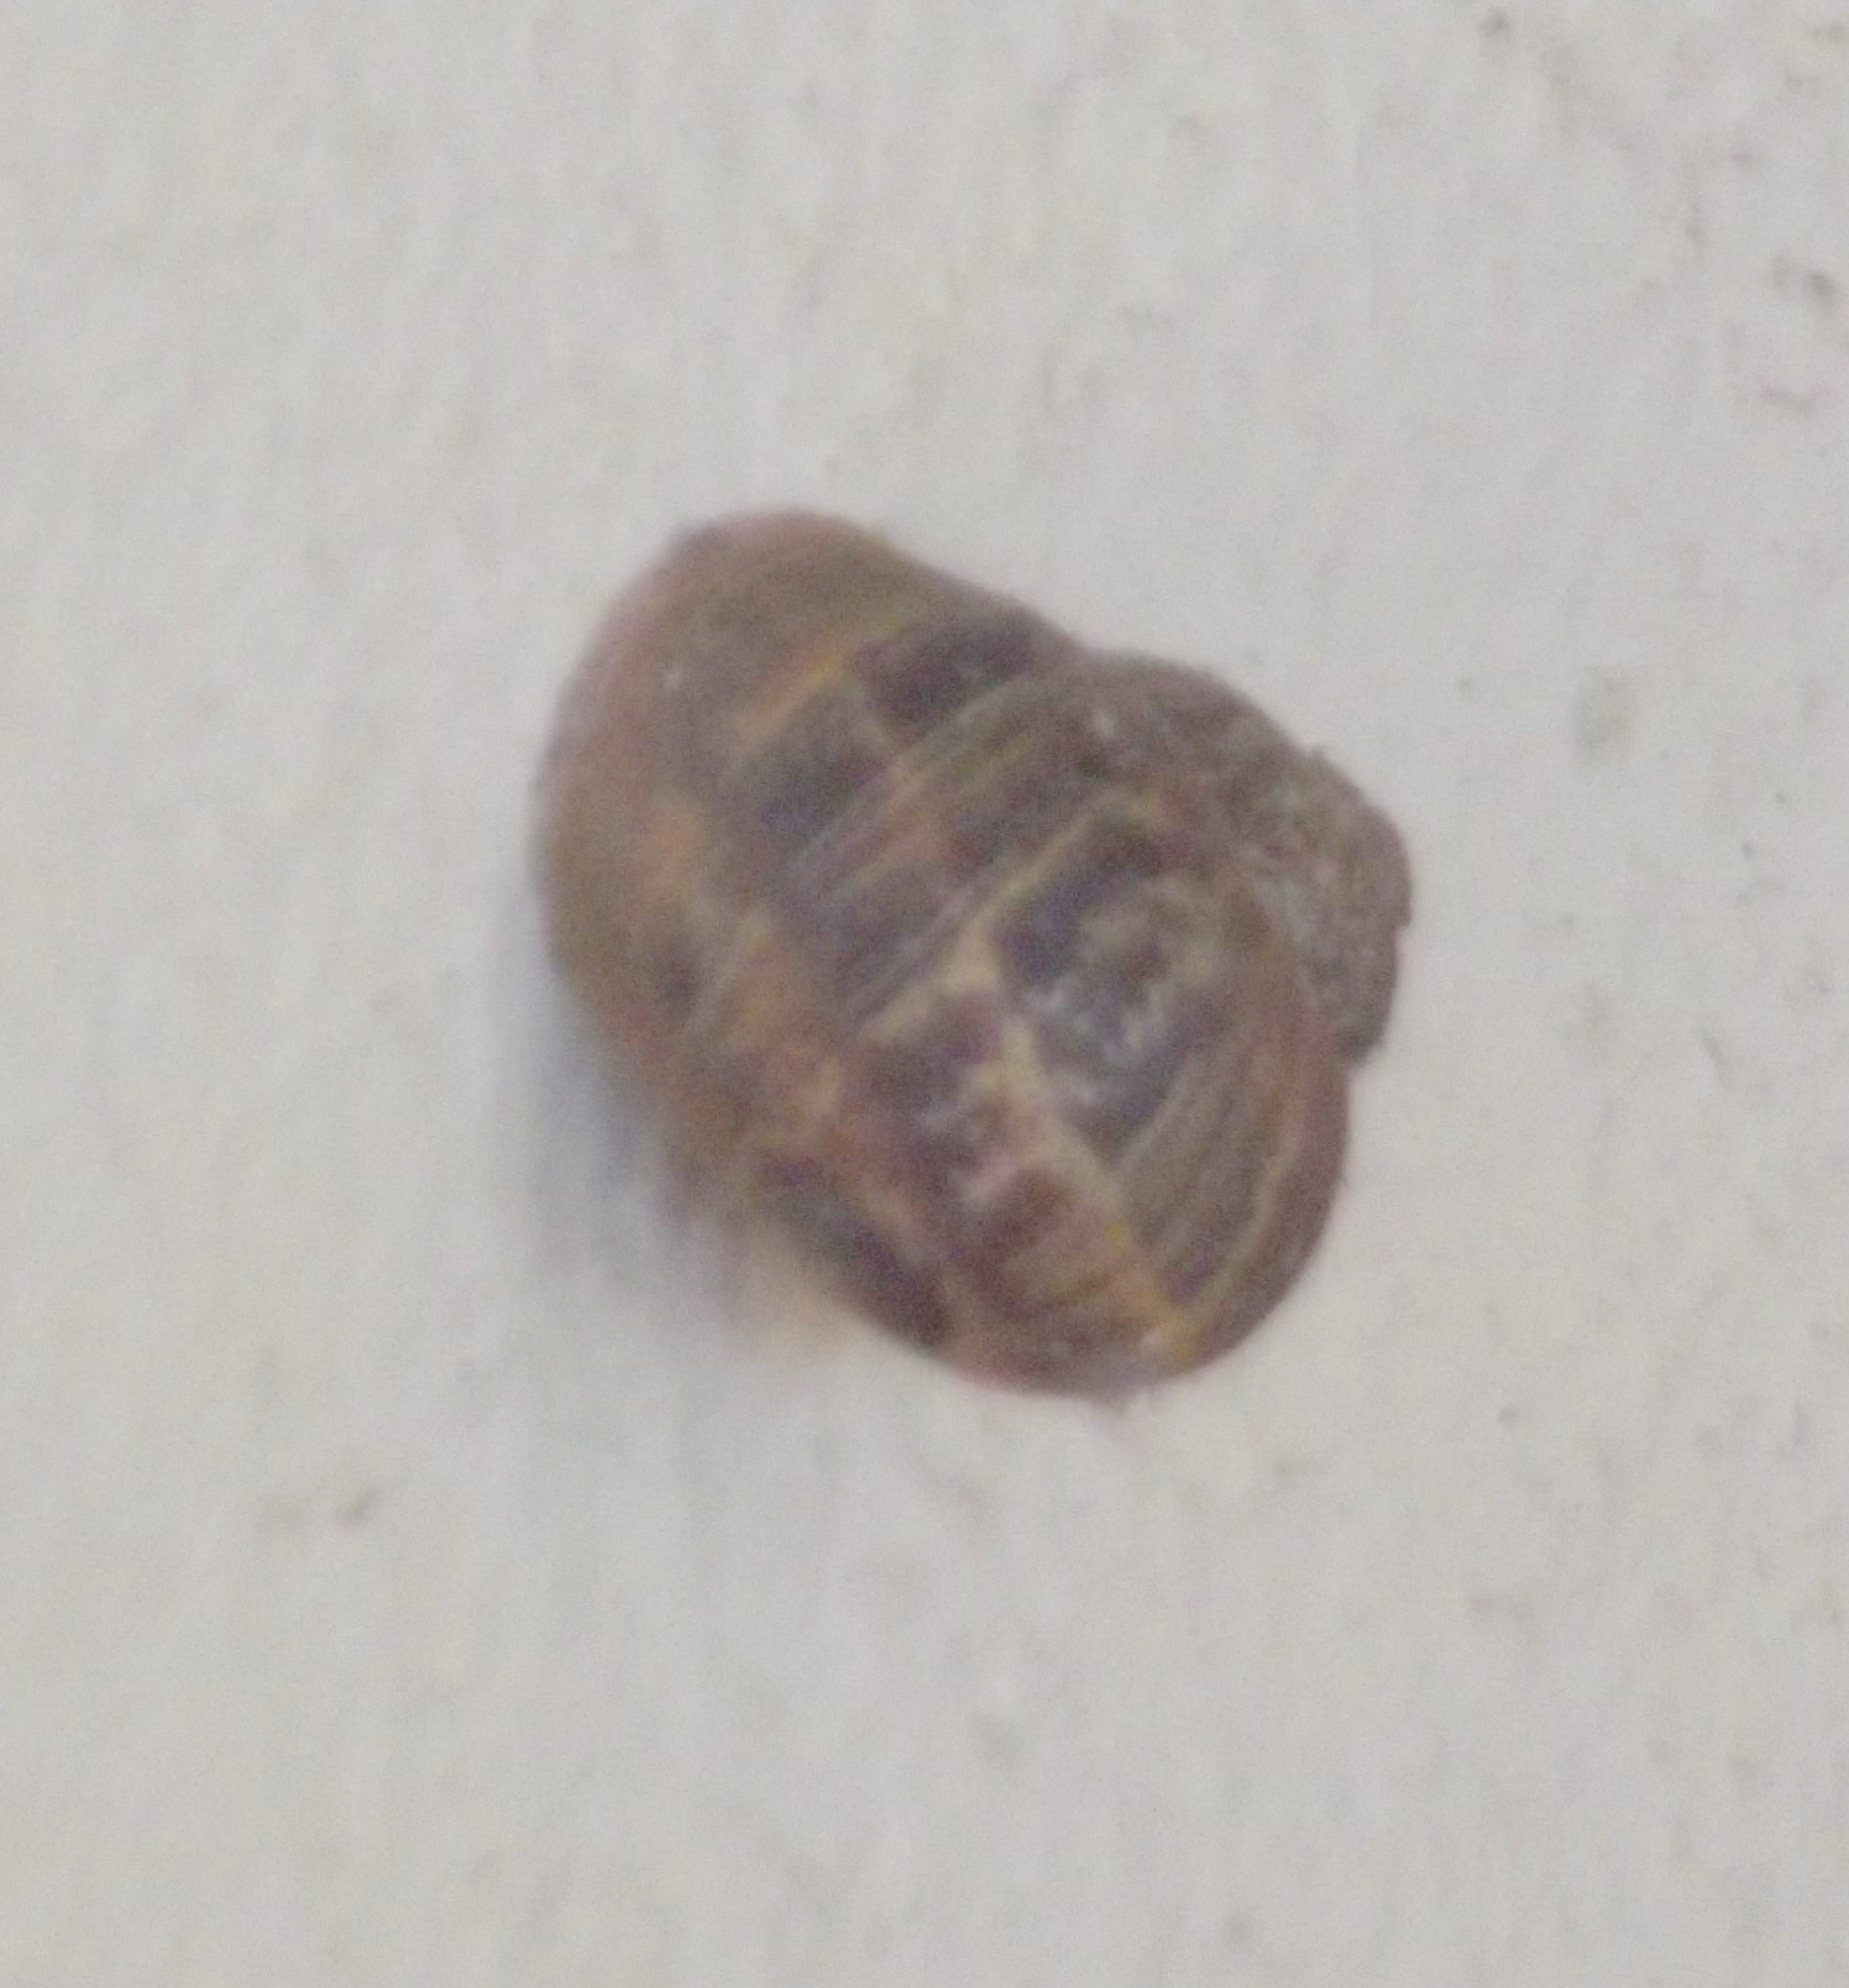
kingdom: Animalia
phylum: Mollusca
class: Gastropoda
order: Stylommatophora
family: Helicidae
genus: Cornu
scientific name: Cornu aspersum
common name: Brown garden snail
